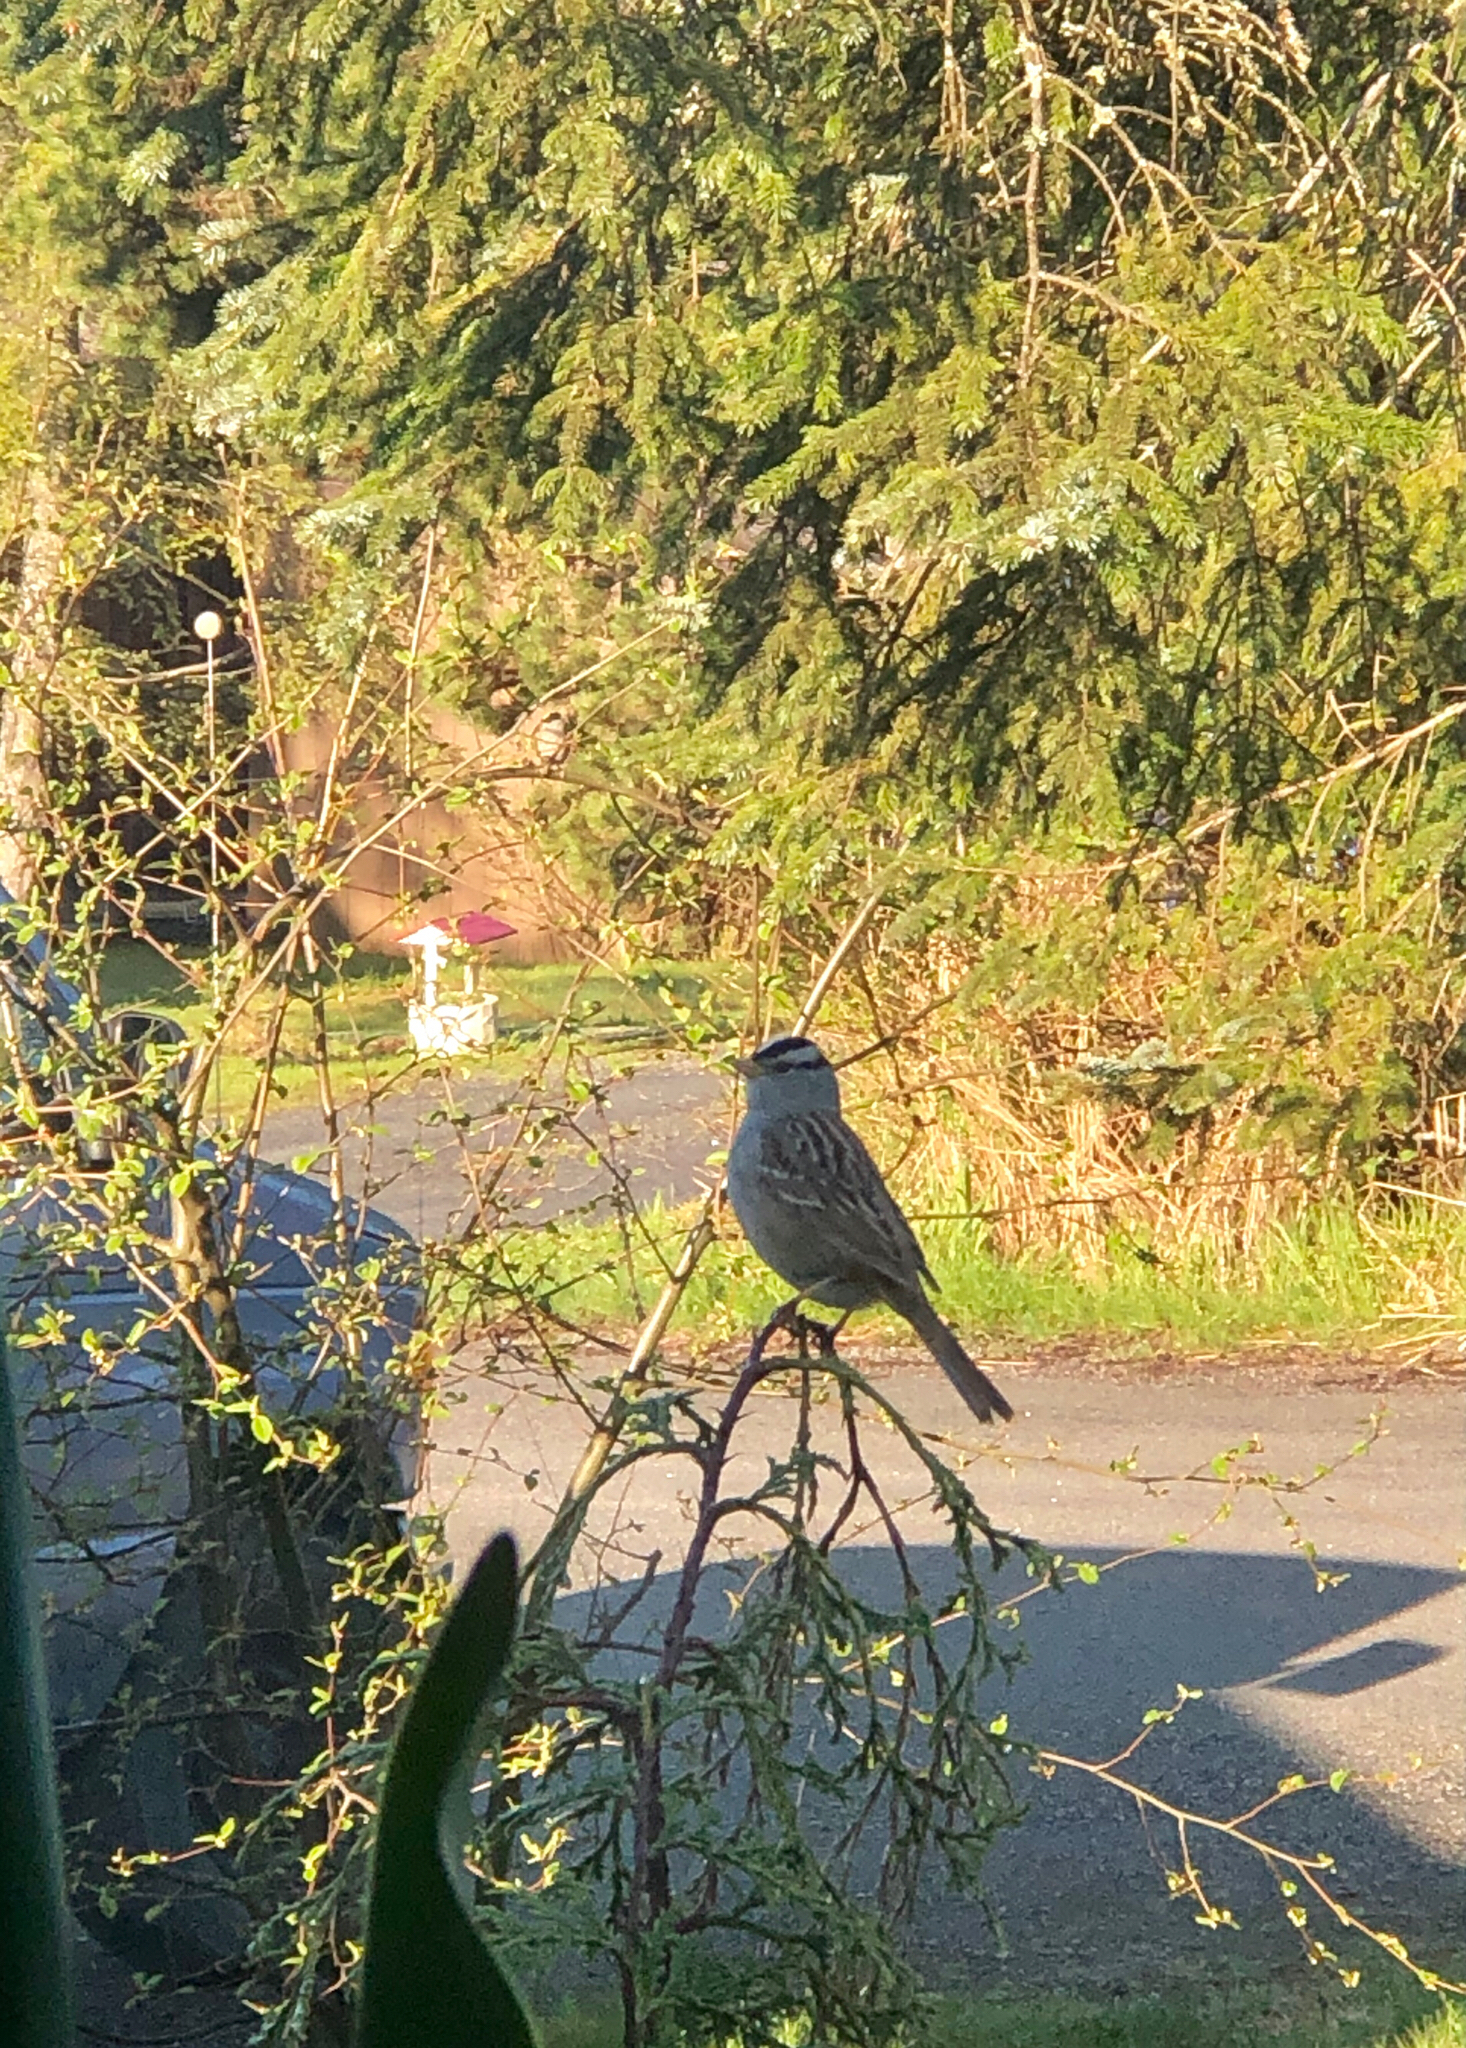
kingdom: Animalia
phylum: Chordata
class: Aves
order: Passeriformes
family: Passerellidae
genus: Zonotrichia
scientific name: Zonotrichia leucophrys
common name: White-crowned sparrow
